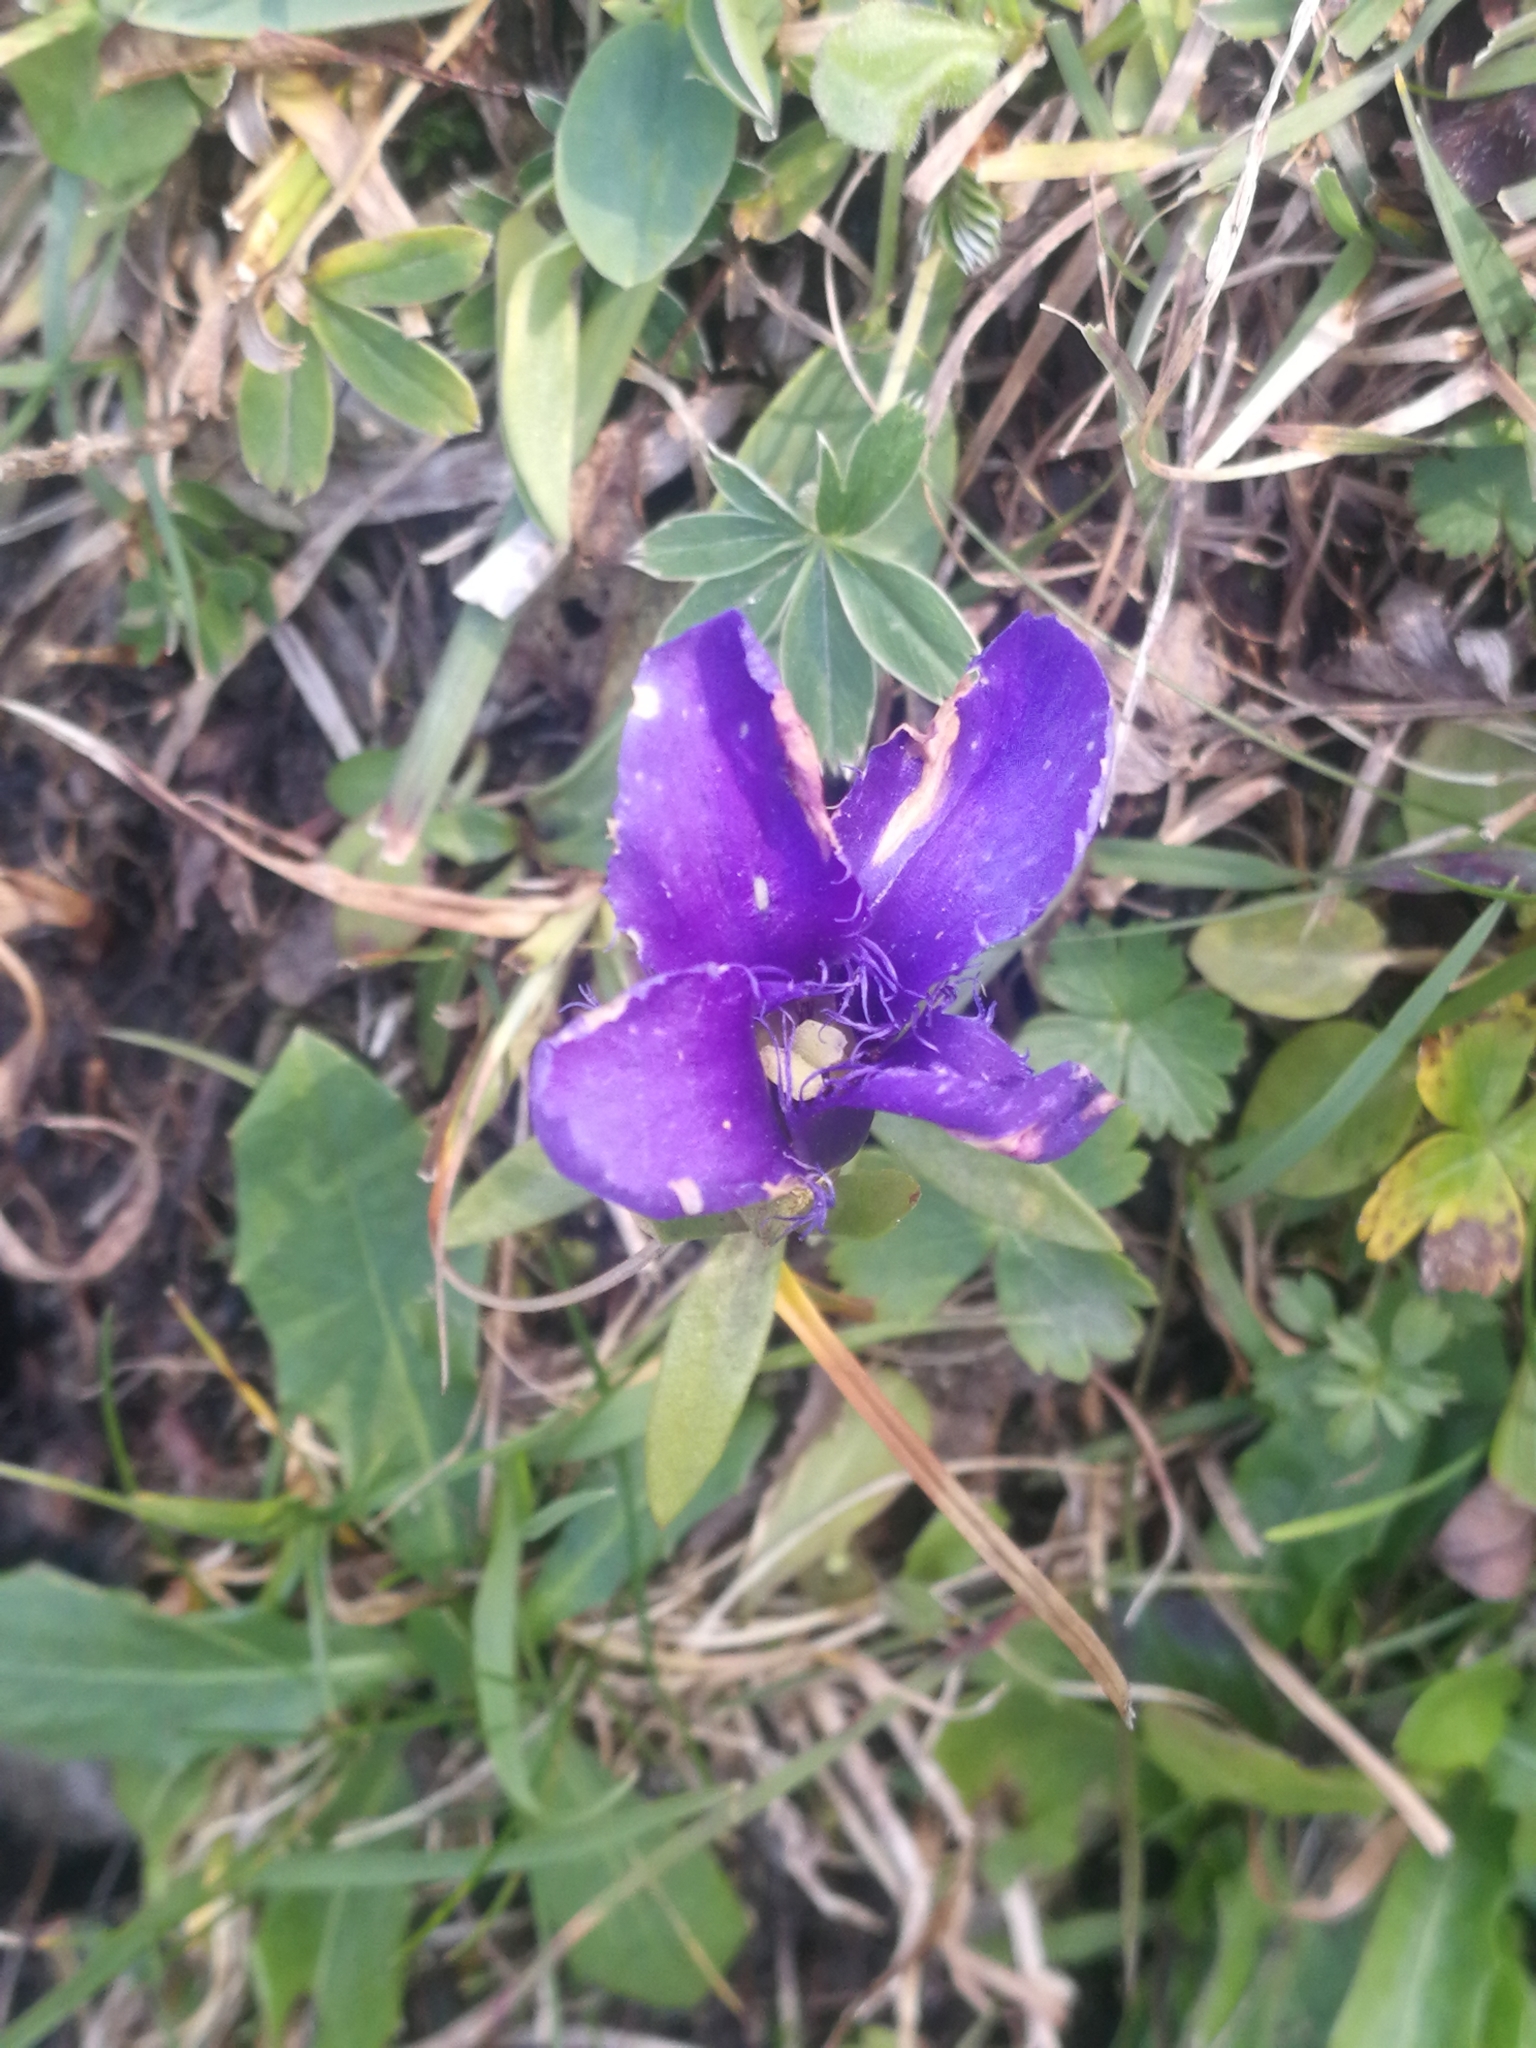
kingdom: Plantae
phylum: Tracheophyta
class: Magnoliopsida
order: Gentianales
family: Gentianaceae
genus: Gentianopsis
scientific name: Gentianopsis ciliata
